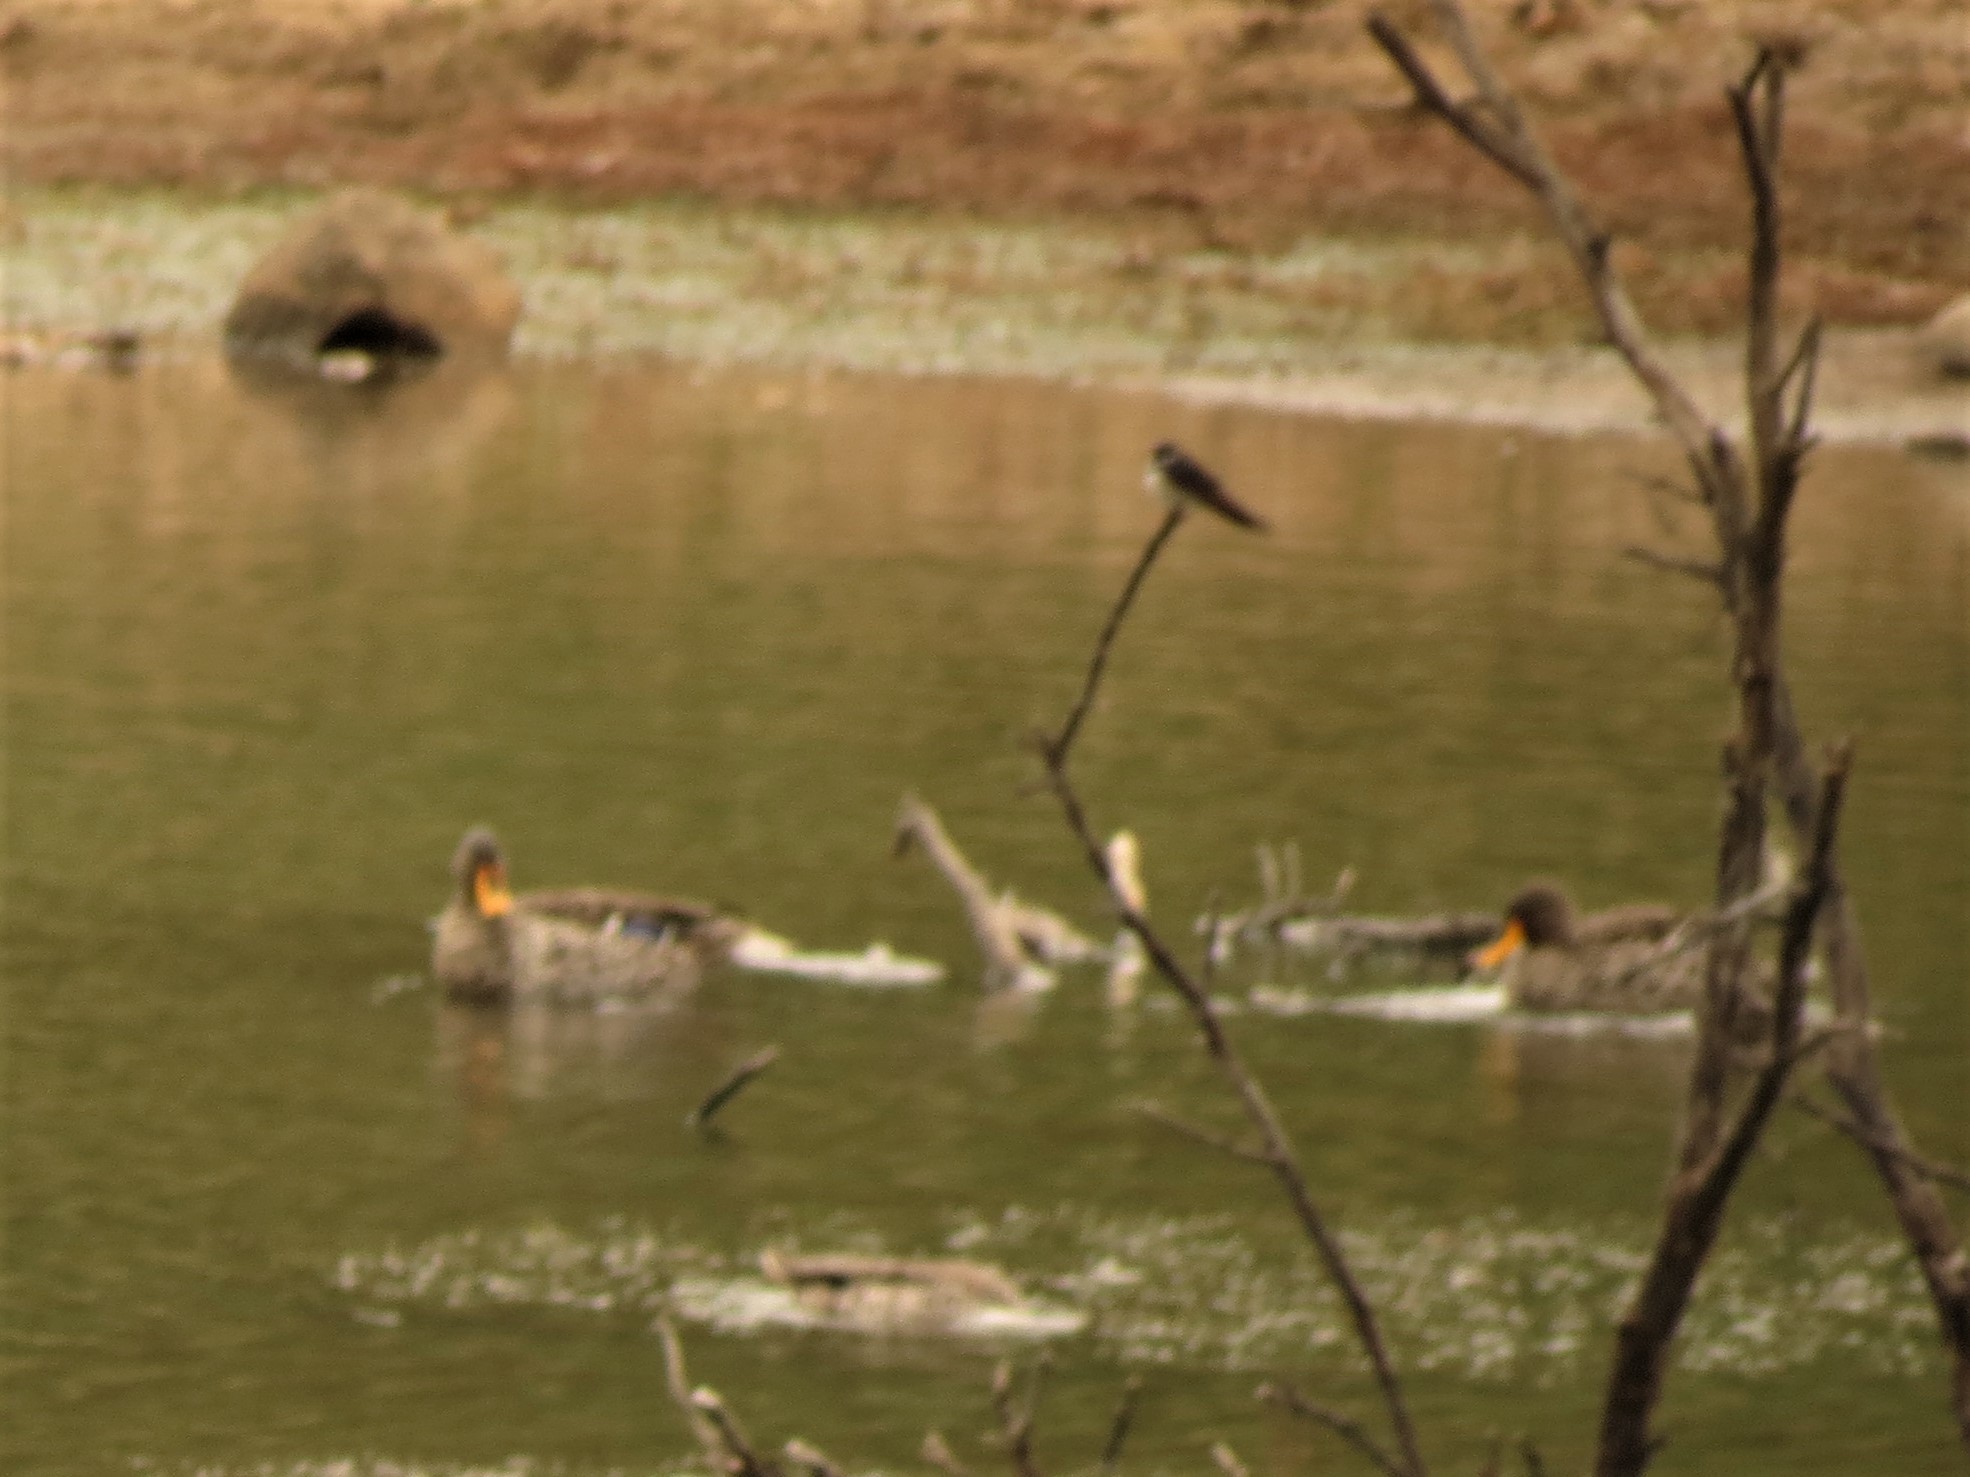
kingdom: Animalia
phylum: Chordata
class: Aves
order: Anseriformes
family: Anatidae
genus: Anas
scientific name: Anas undulata
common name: Yellow-billed duck
